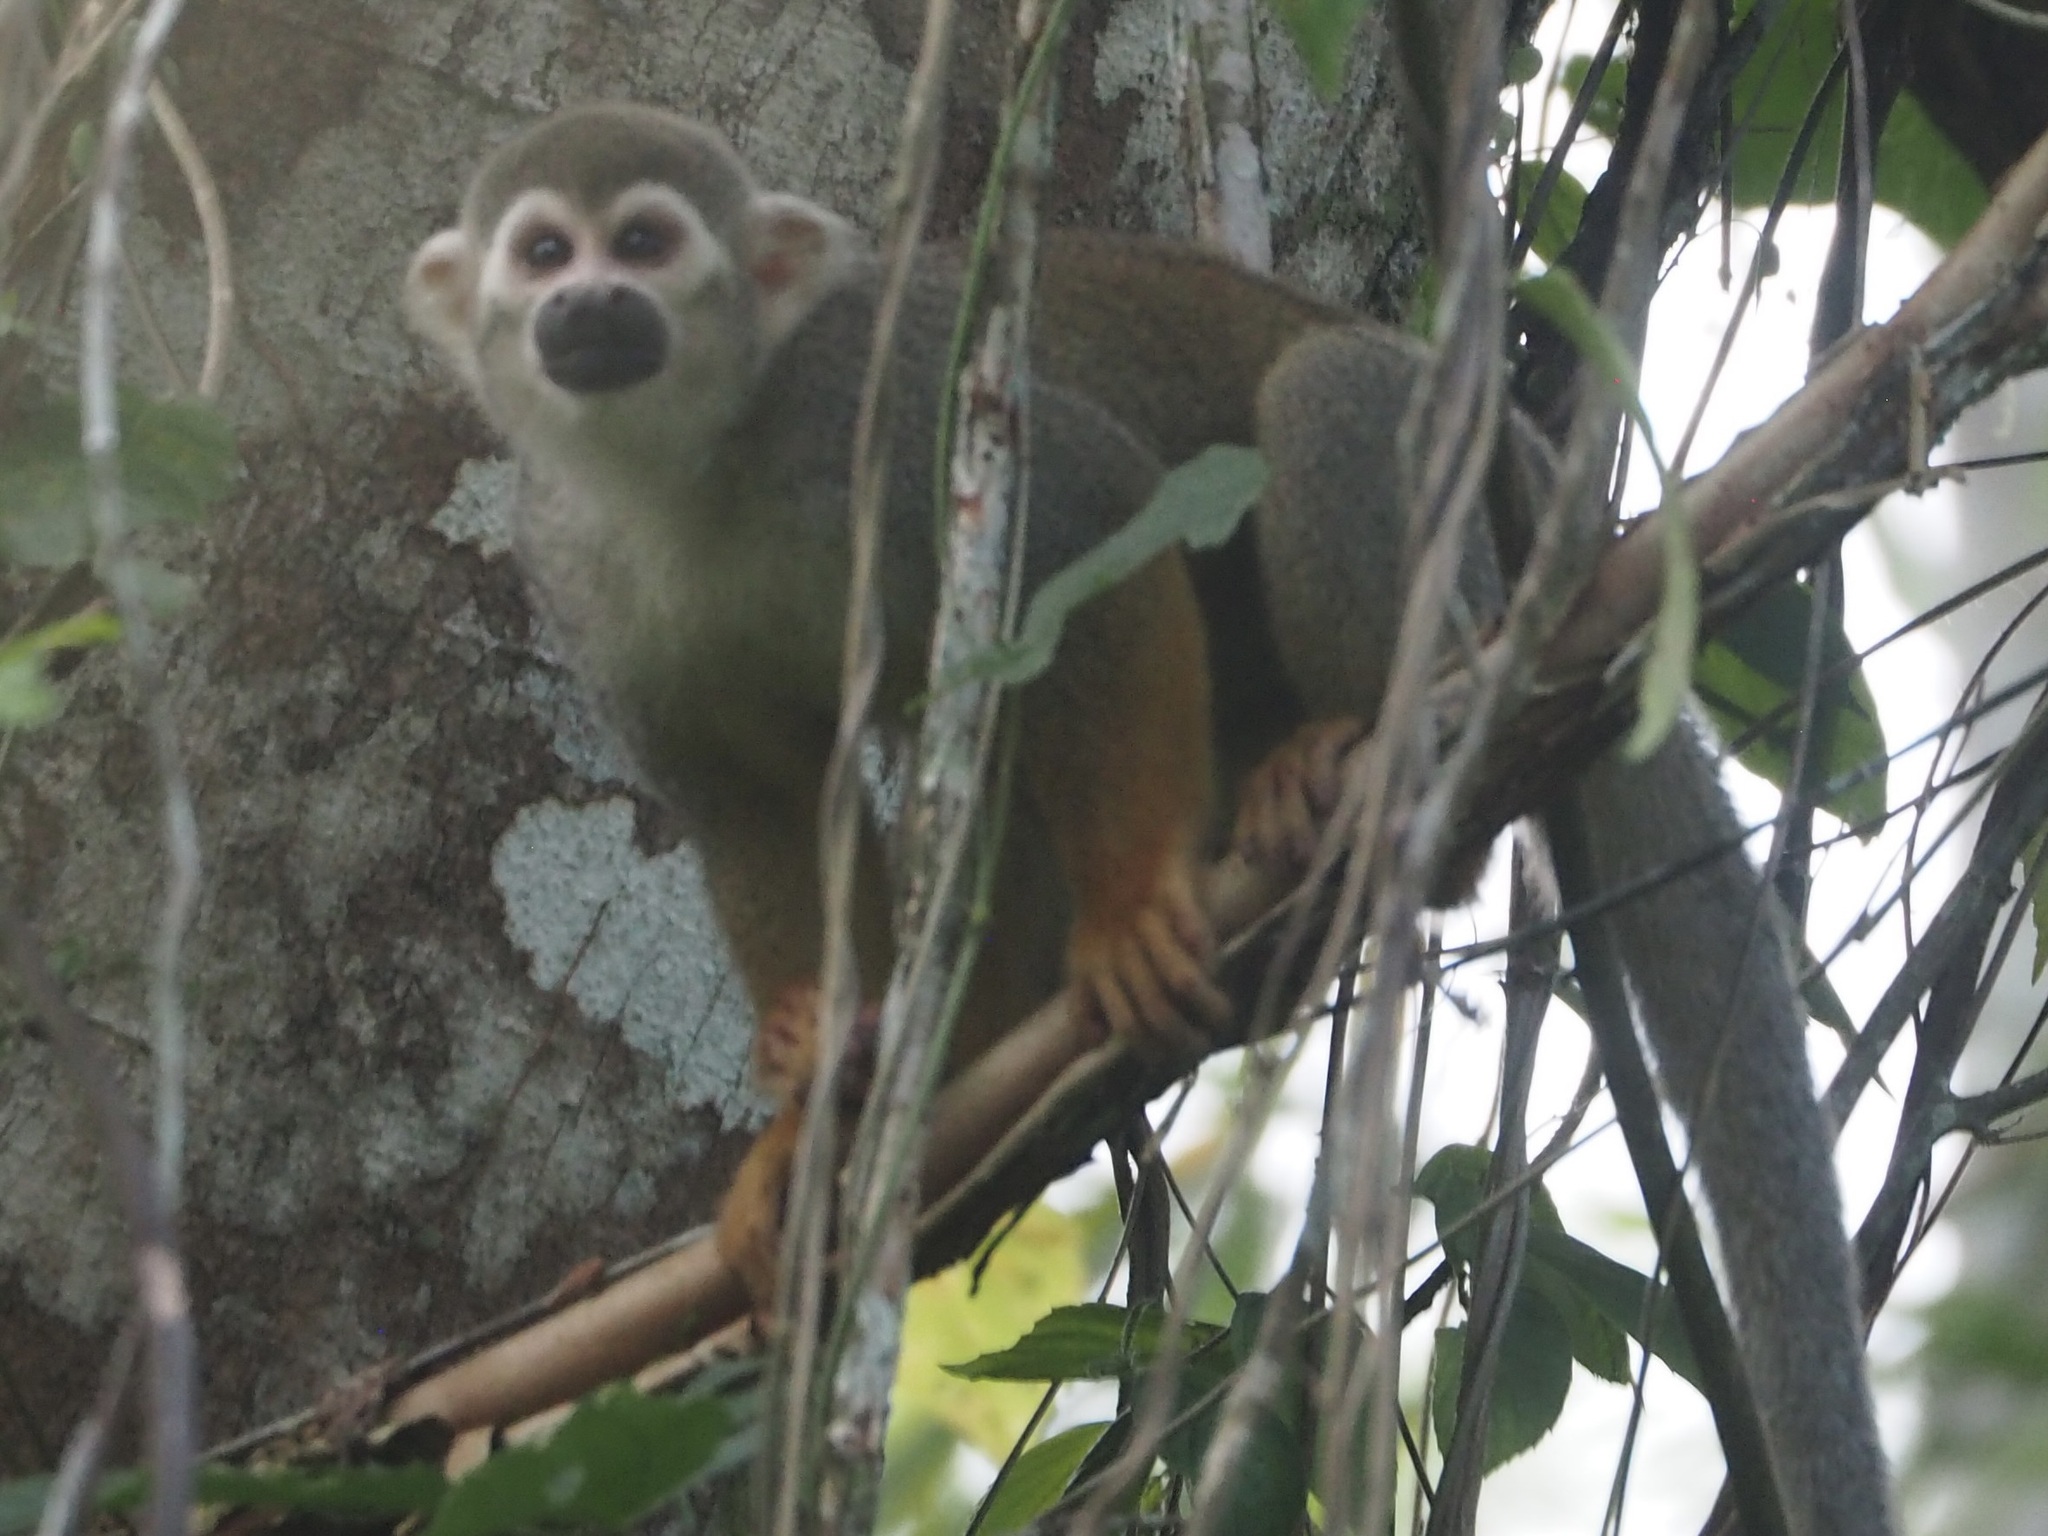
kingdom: Animalia
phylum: Chordata
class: Mammalia
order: Primates
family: Cebidae
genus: Saimiri
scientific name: Saimiri sciureus
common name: Common squirrel monkey
